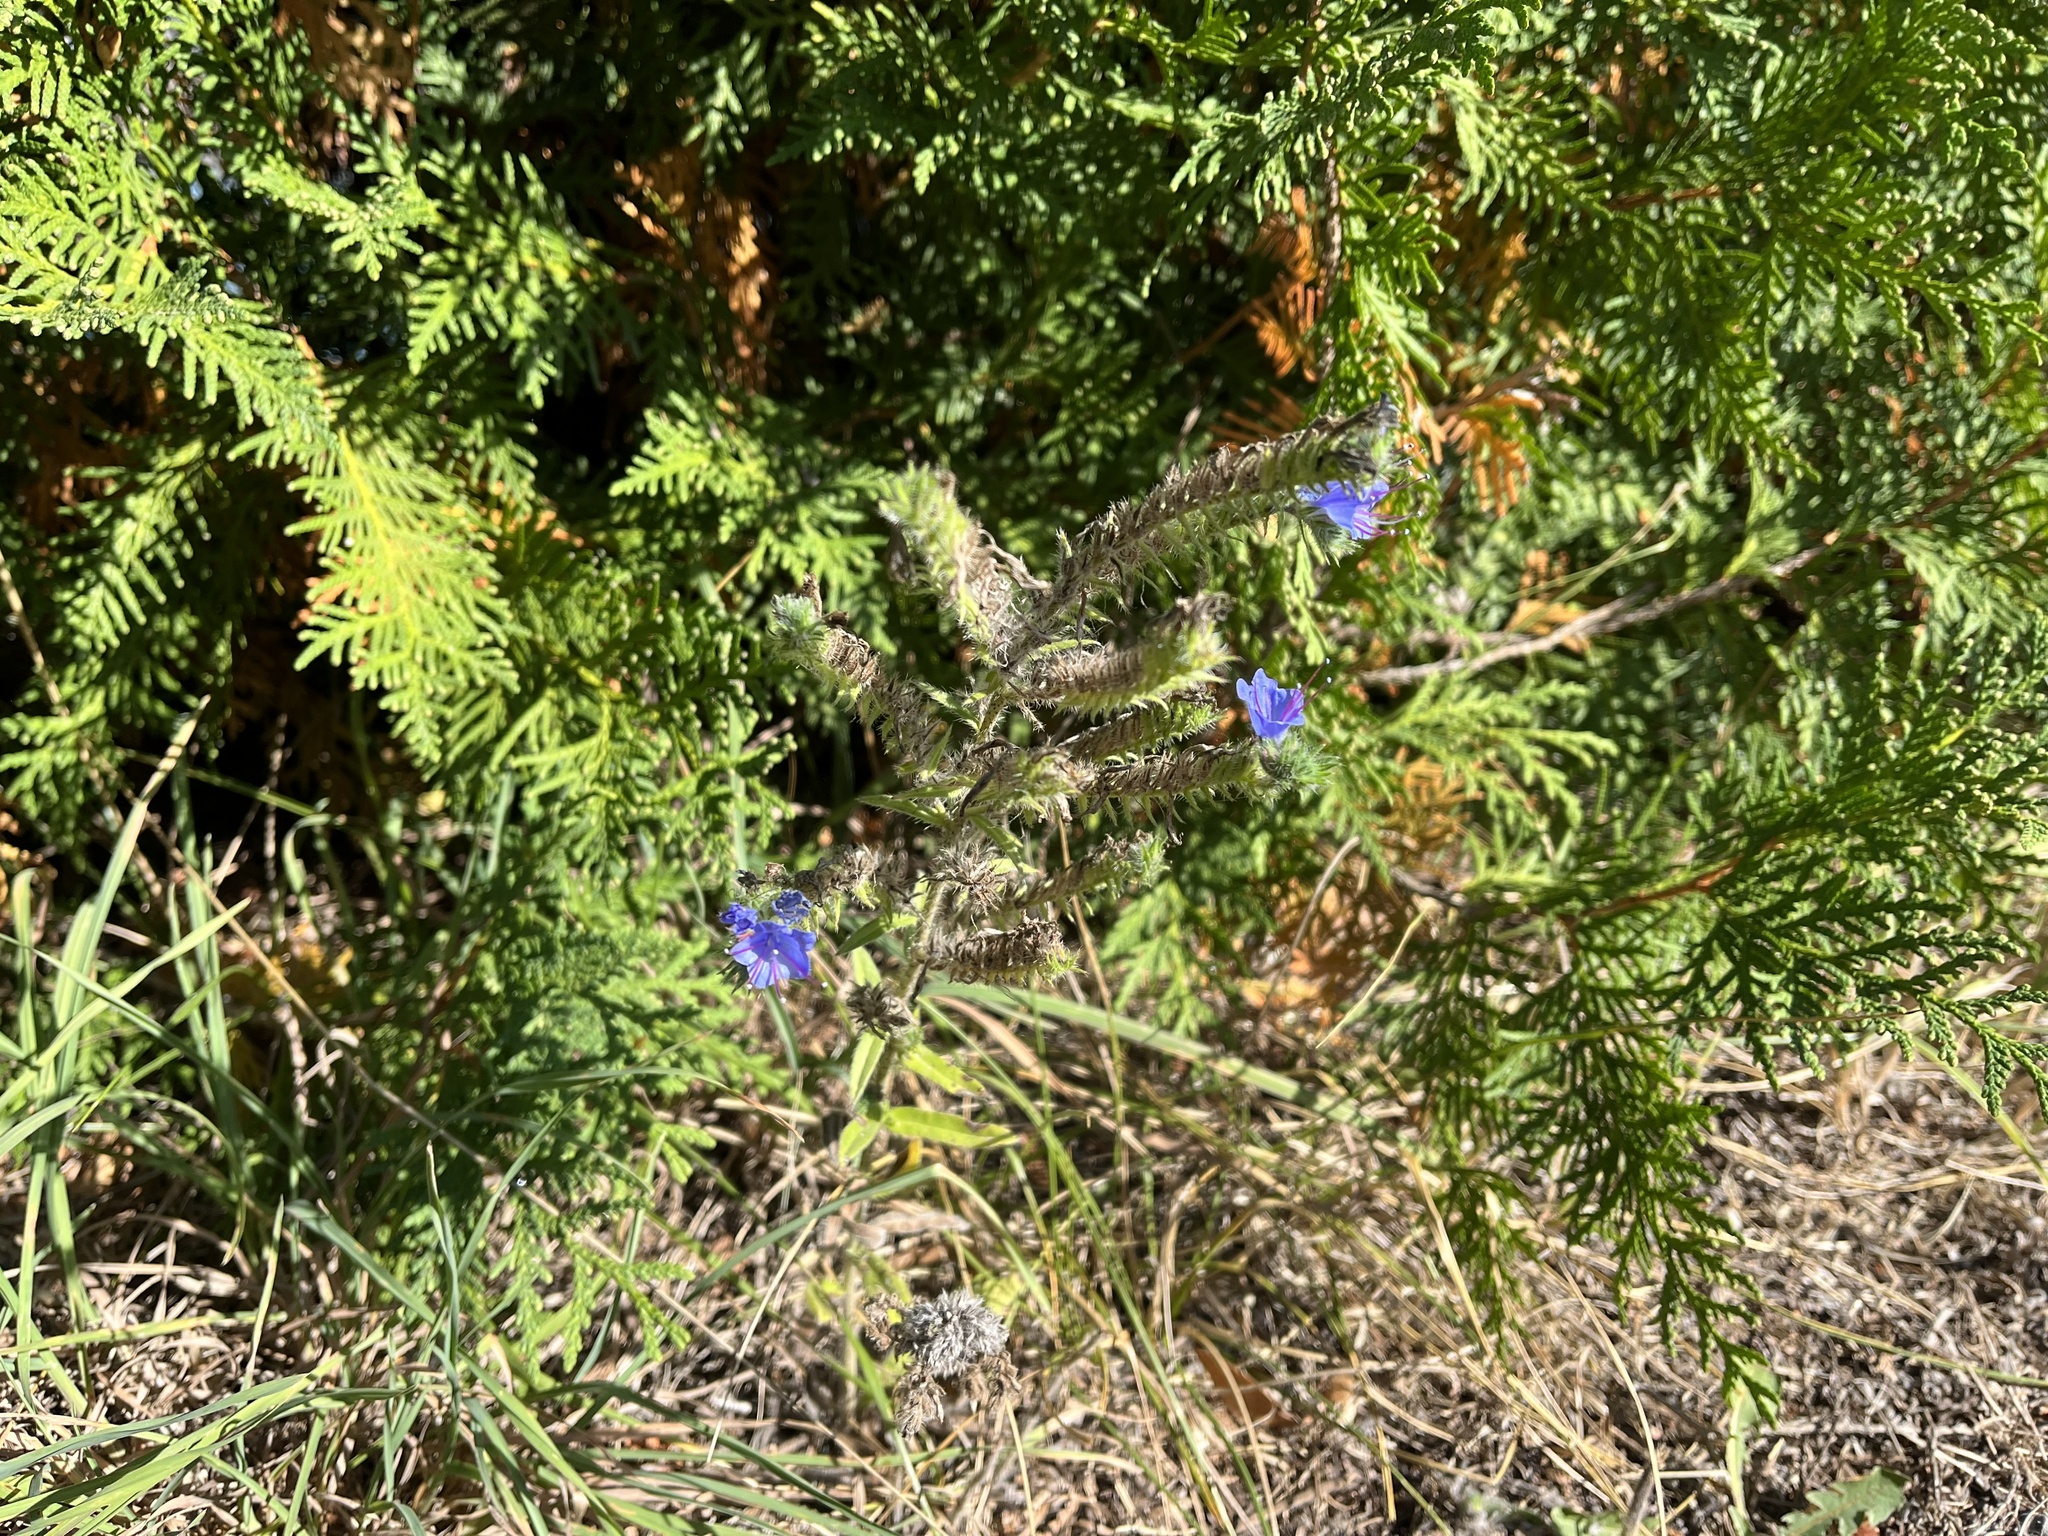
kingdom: Plantae
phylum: Tracheophyta
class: Magnoliopsida
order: Boraginales
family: Boraginaceae
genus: Echium
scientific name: Echium vulgare
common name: Common viper's bugloss
